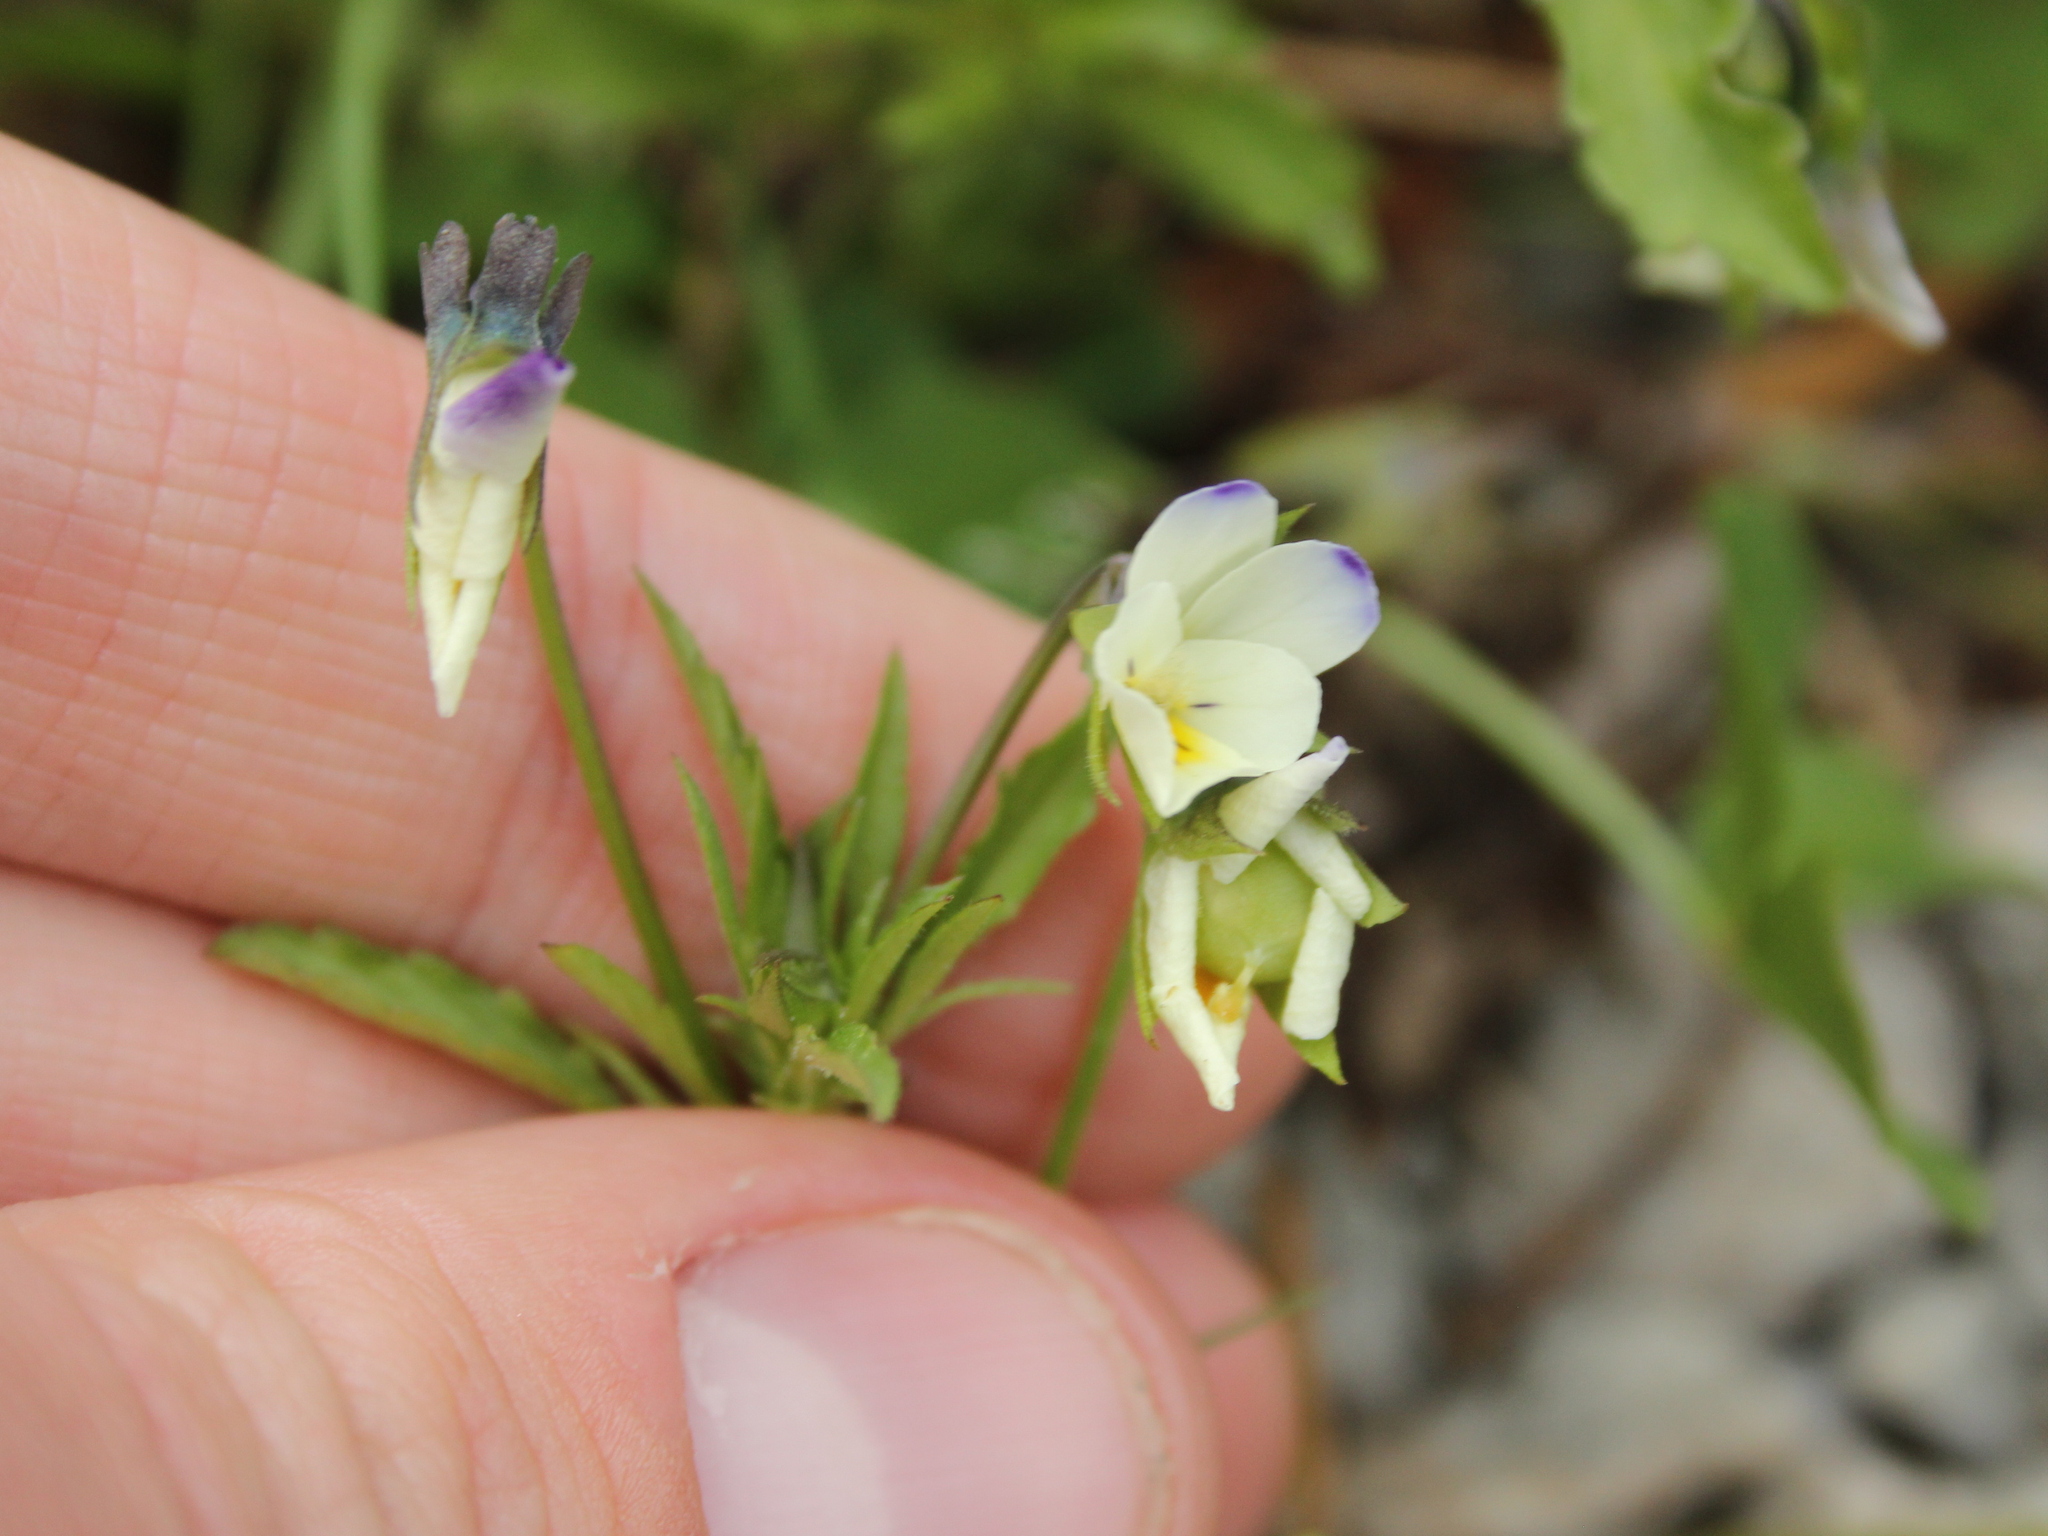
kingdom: Plantae
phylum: Tracheophyta
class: Magnoliopsida
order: Malpighiales
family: Violaceae
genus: Viola
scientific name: Viola arvensis
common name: Field pansy
